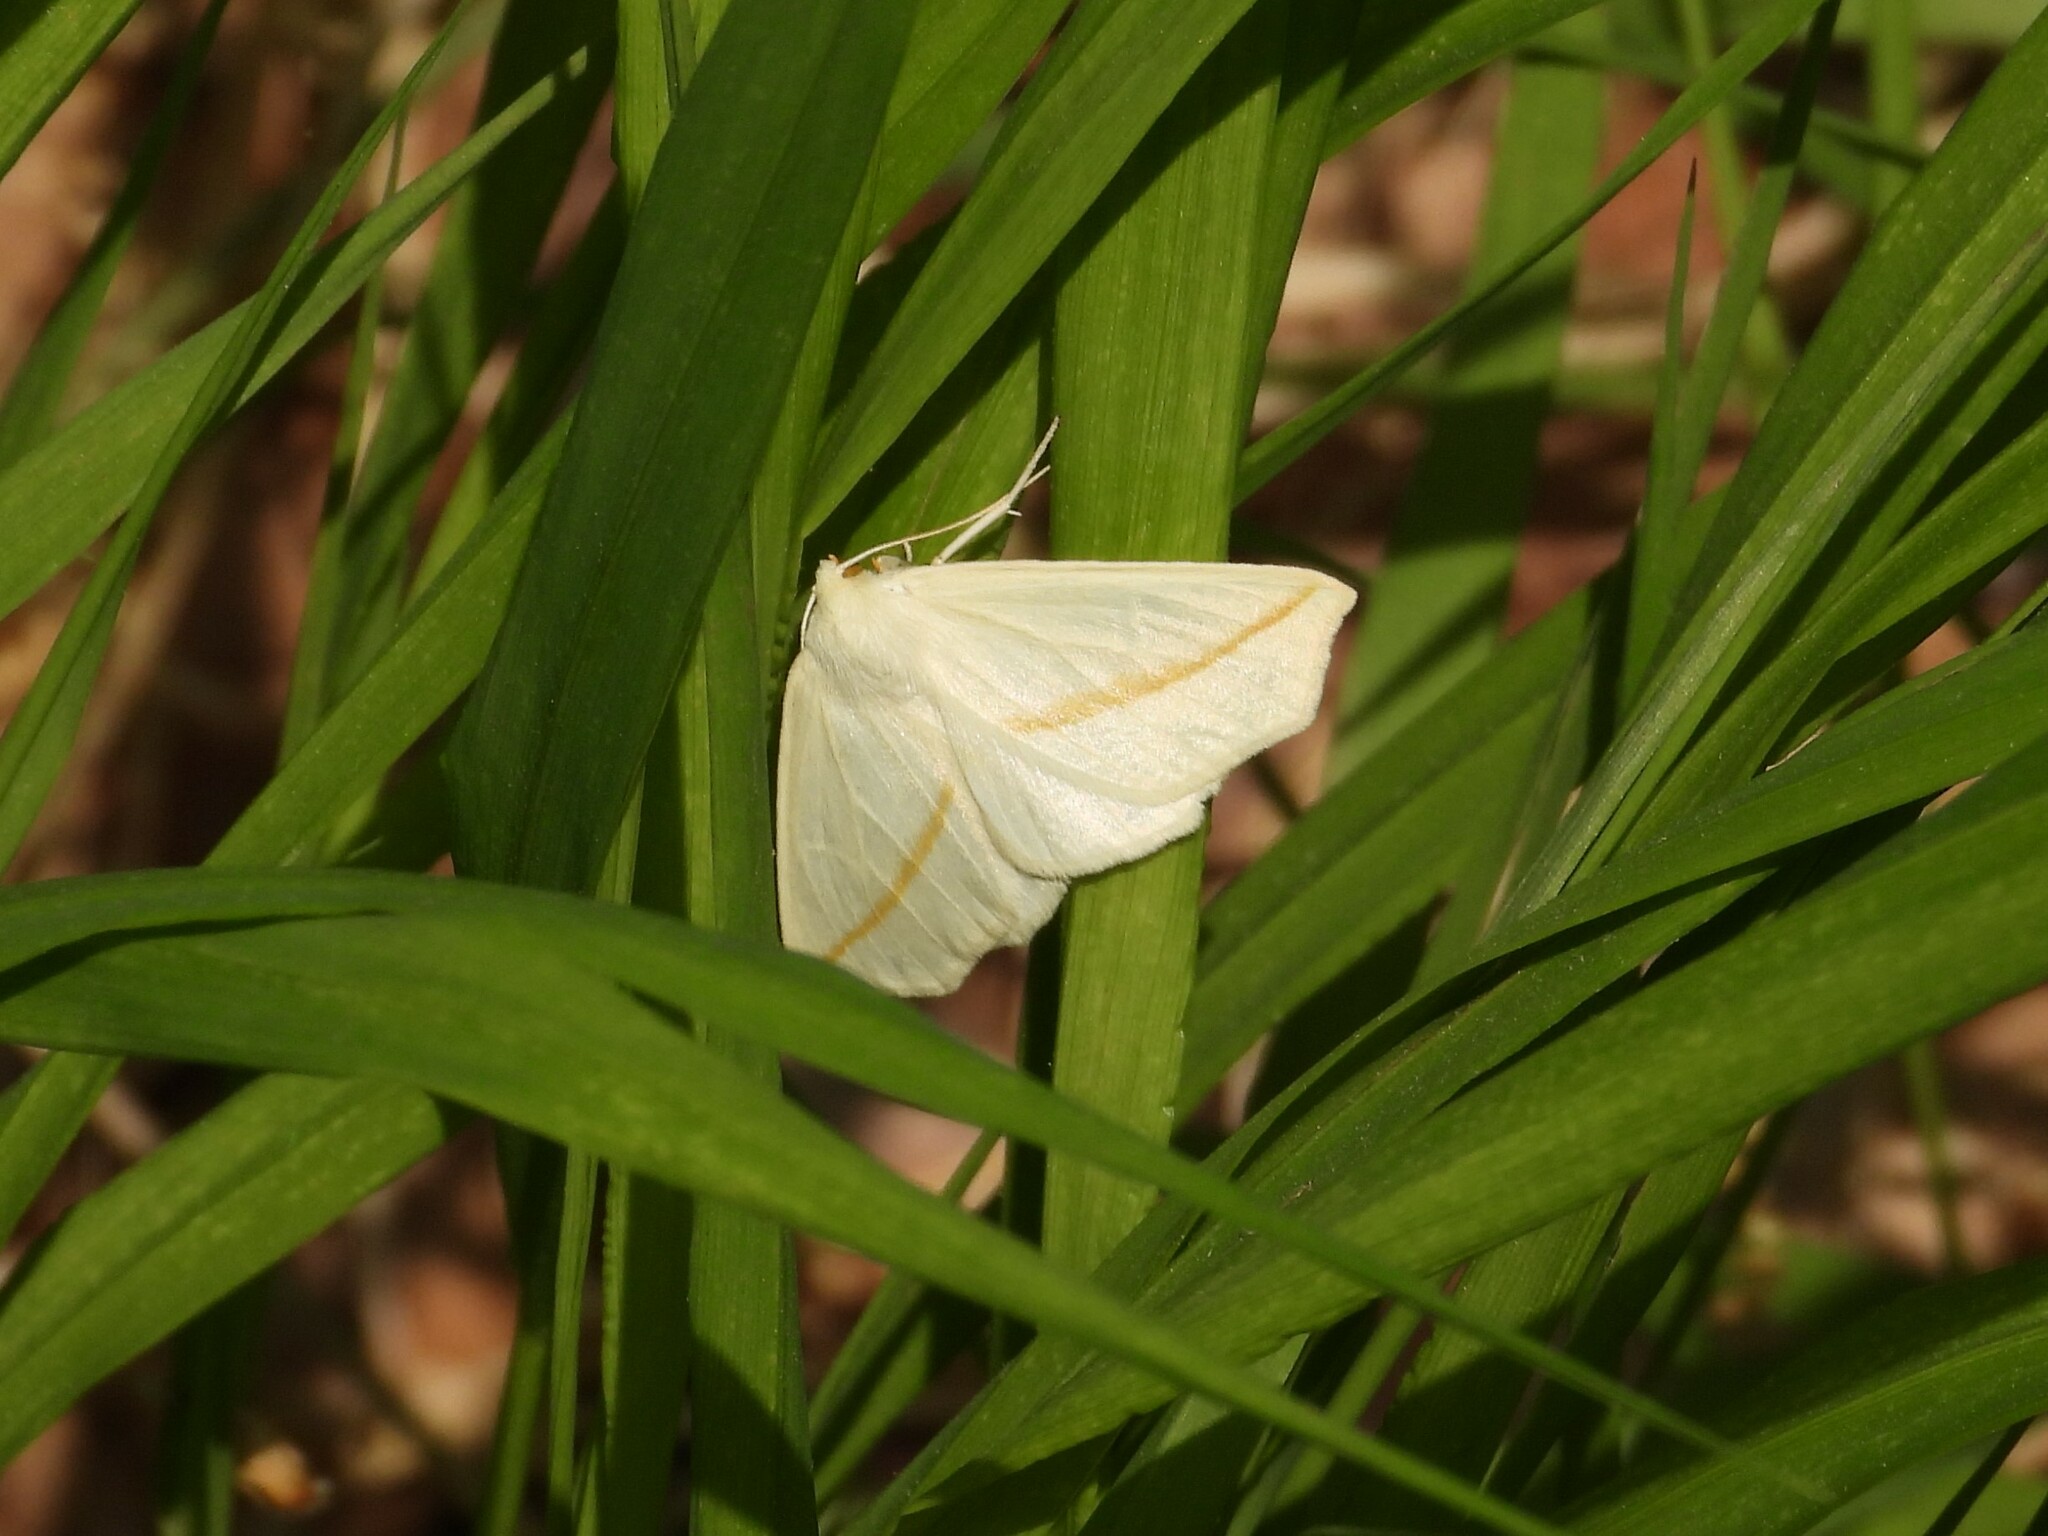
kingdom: Animalia
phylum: Arthropoda
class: Insecta
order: Lepidoptera
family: Geometridae
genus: Tetracis
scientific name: Tetracis cachexiata
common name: White slant-line
